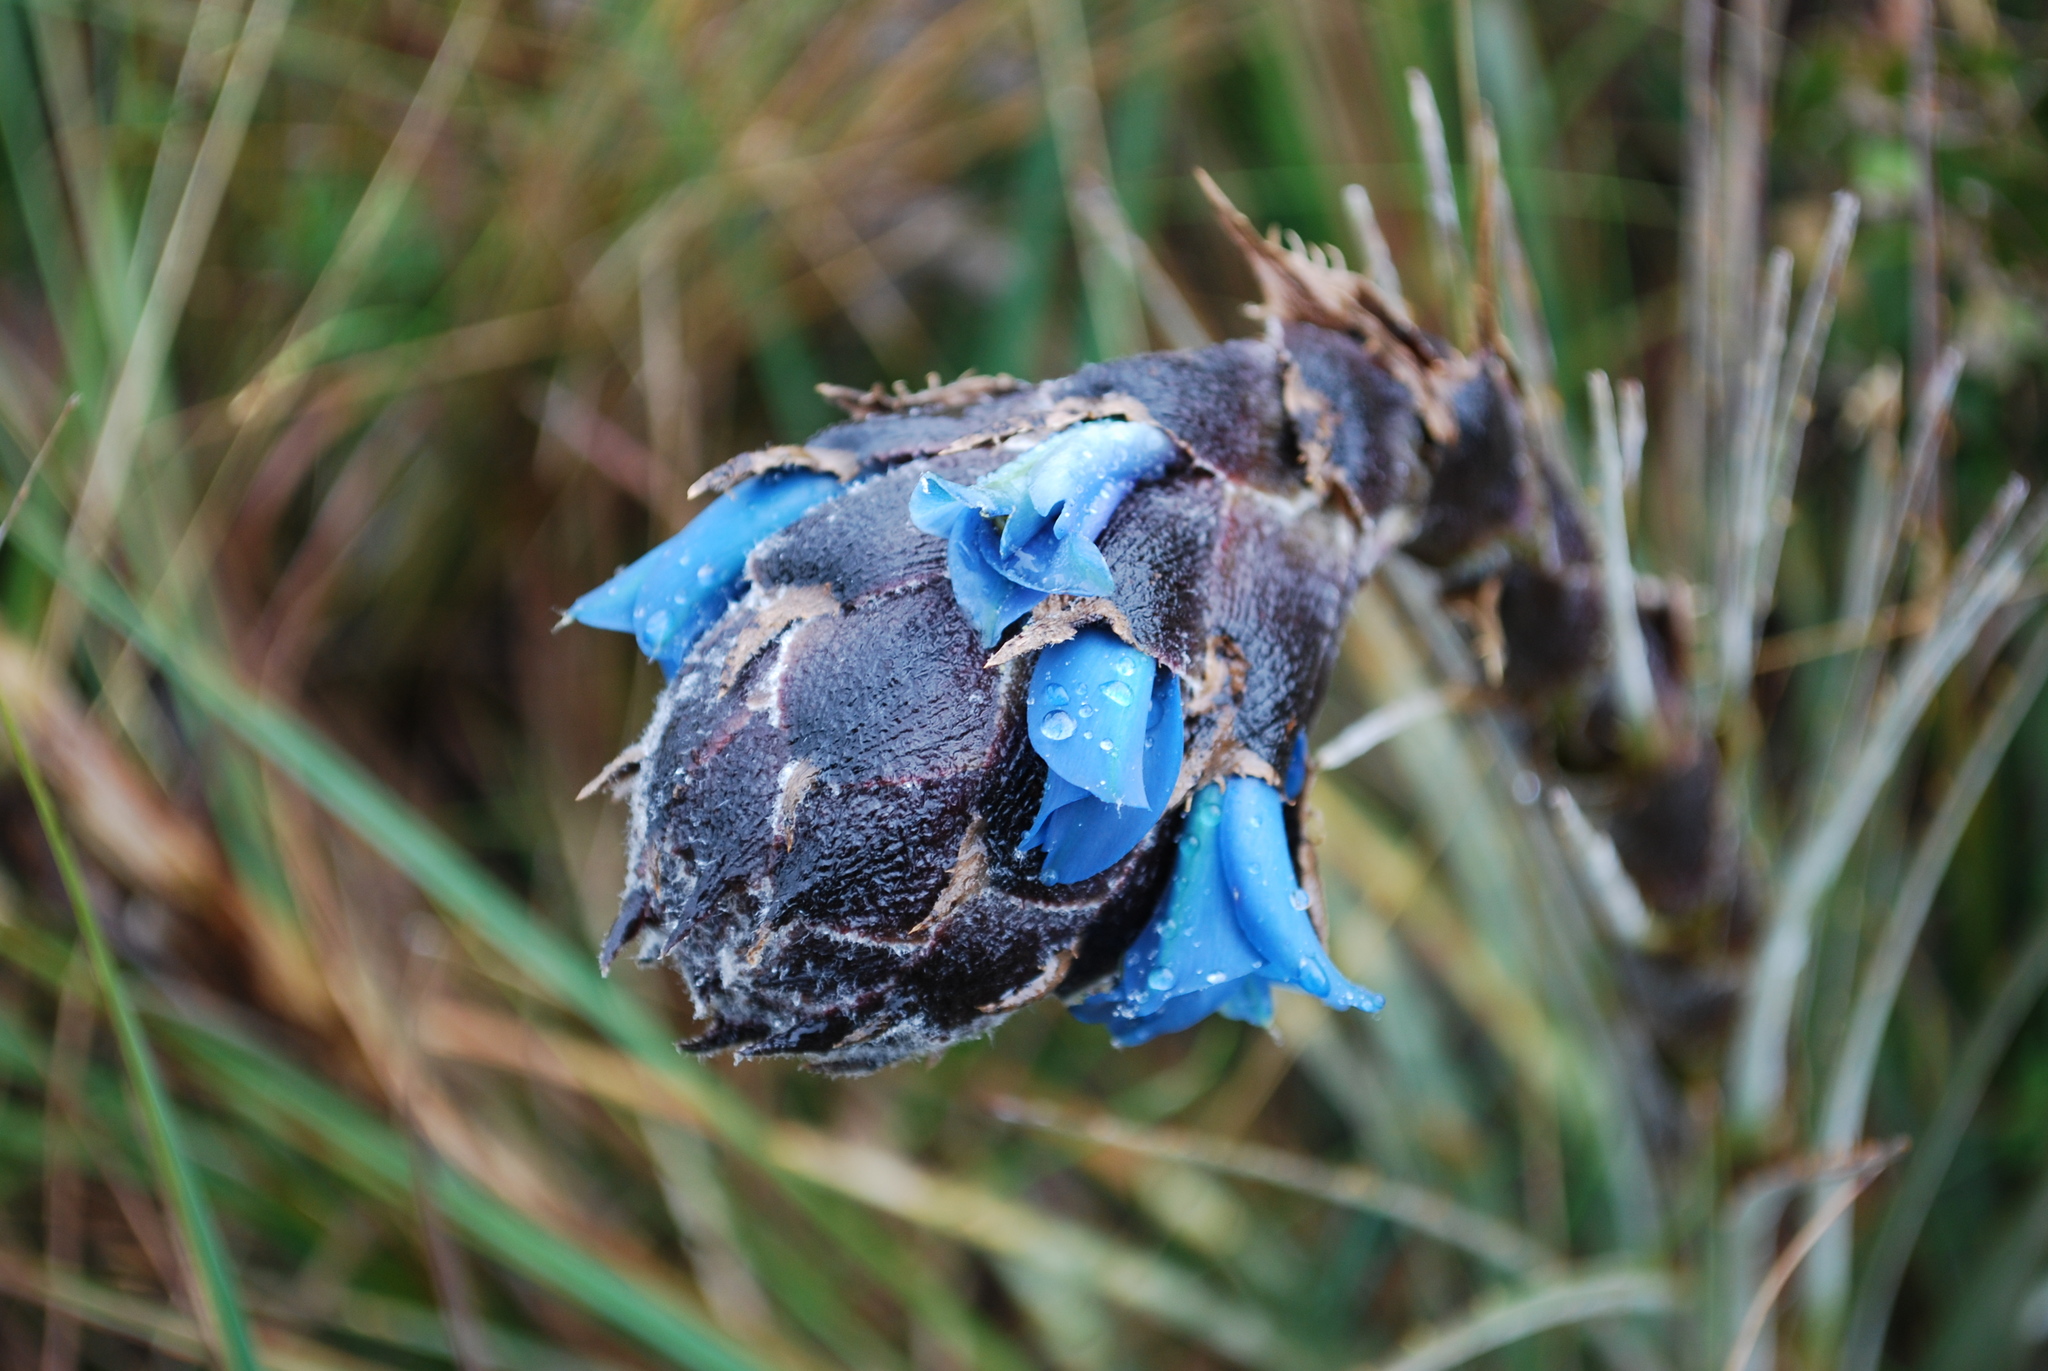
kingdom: Plantae
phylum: Tracheophyta
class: Liliopsida
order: Poales
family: Bromeliaceae
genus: Puya
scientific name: Puya lineata
